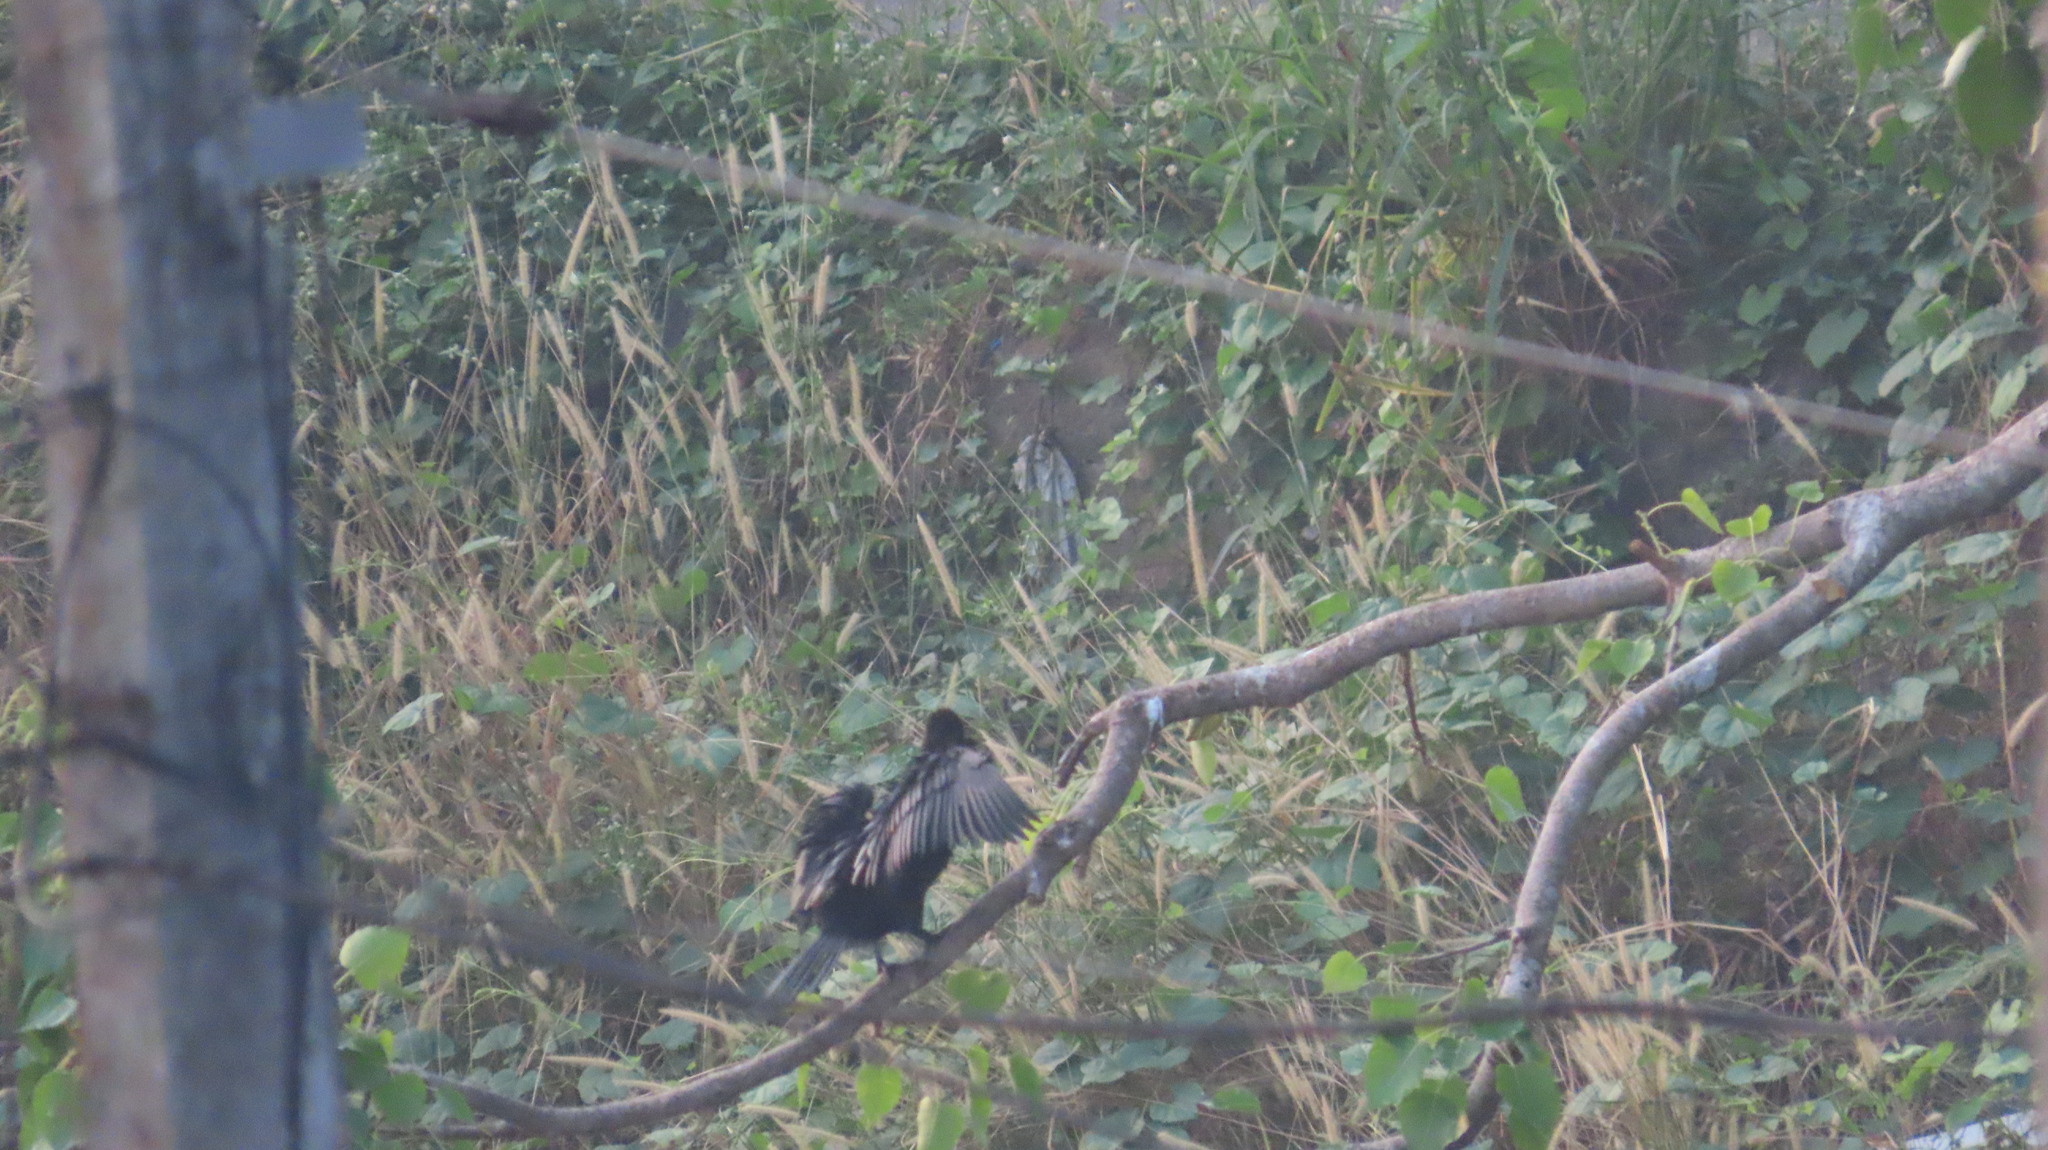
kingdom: Animalia
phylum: Chordata
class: Aves
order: Suliformes
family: Phalacrocoracidae
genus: Microcarbo
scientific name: Microcarbo niger
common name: Little cormorant
